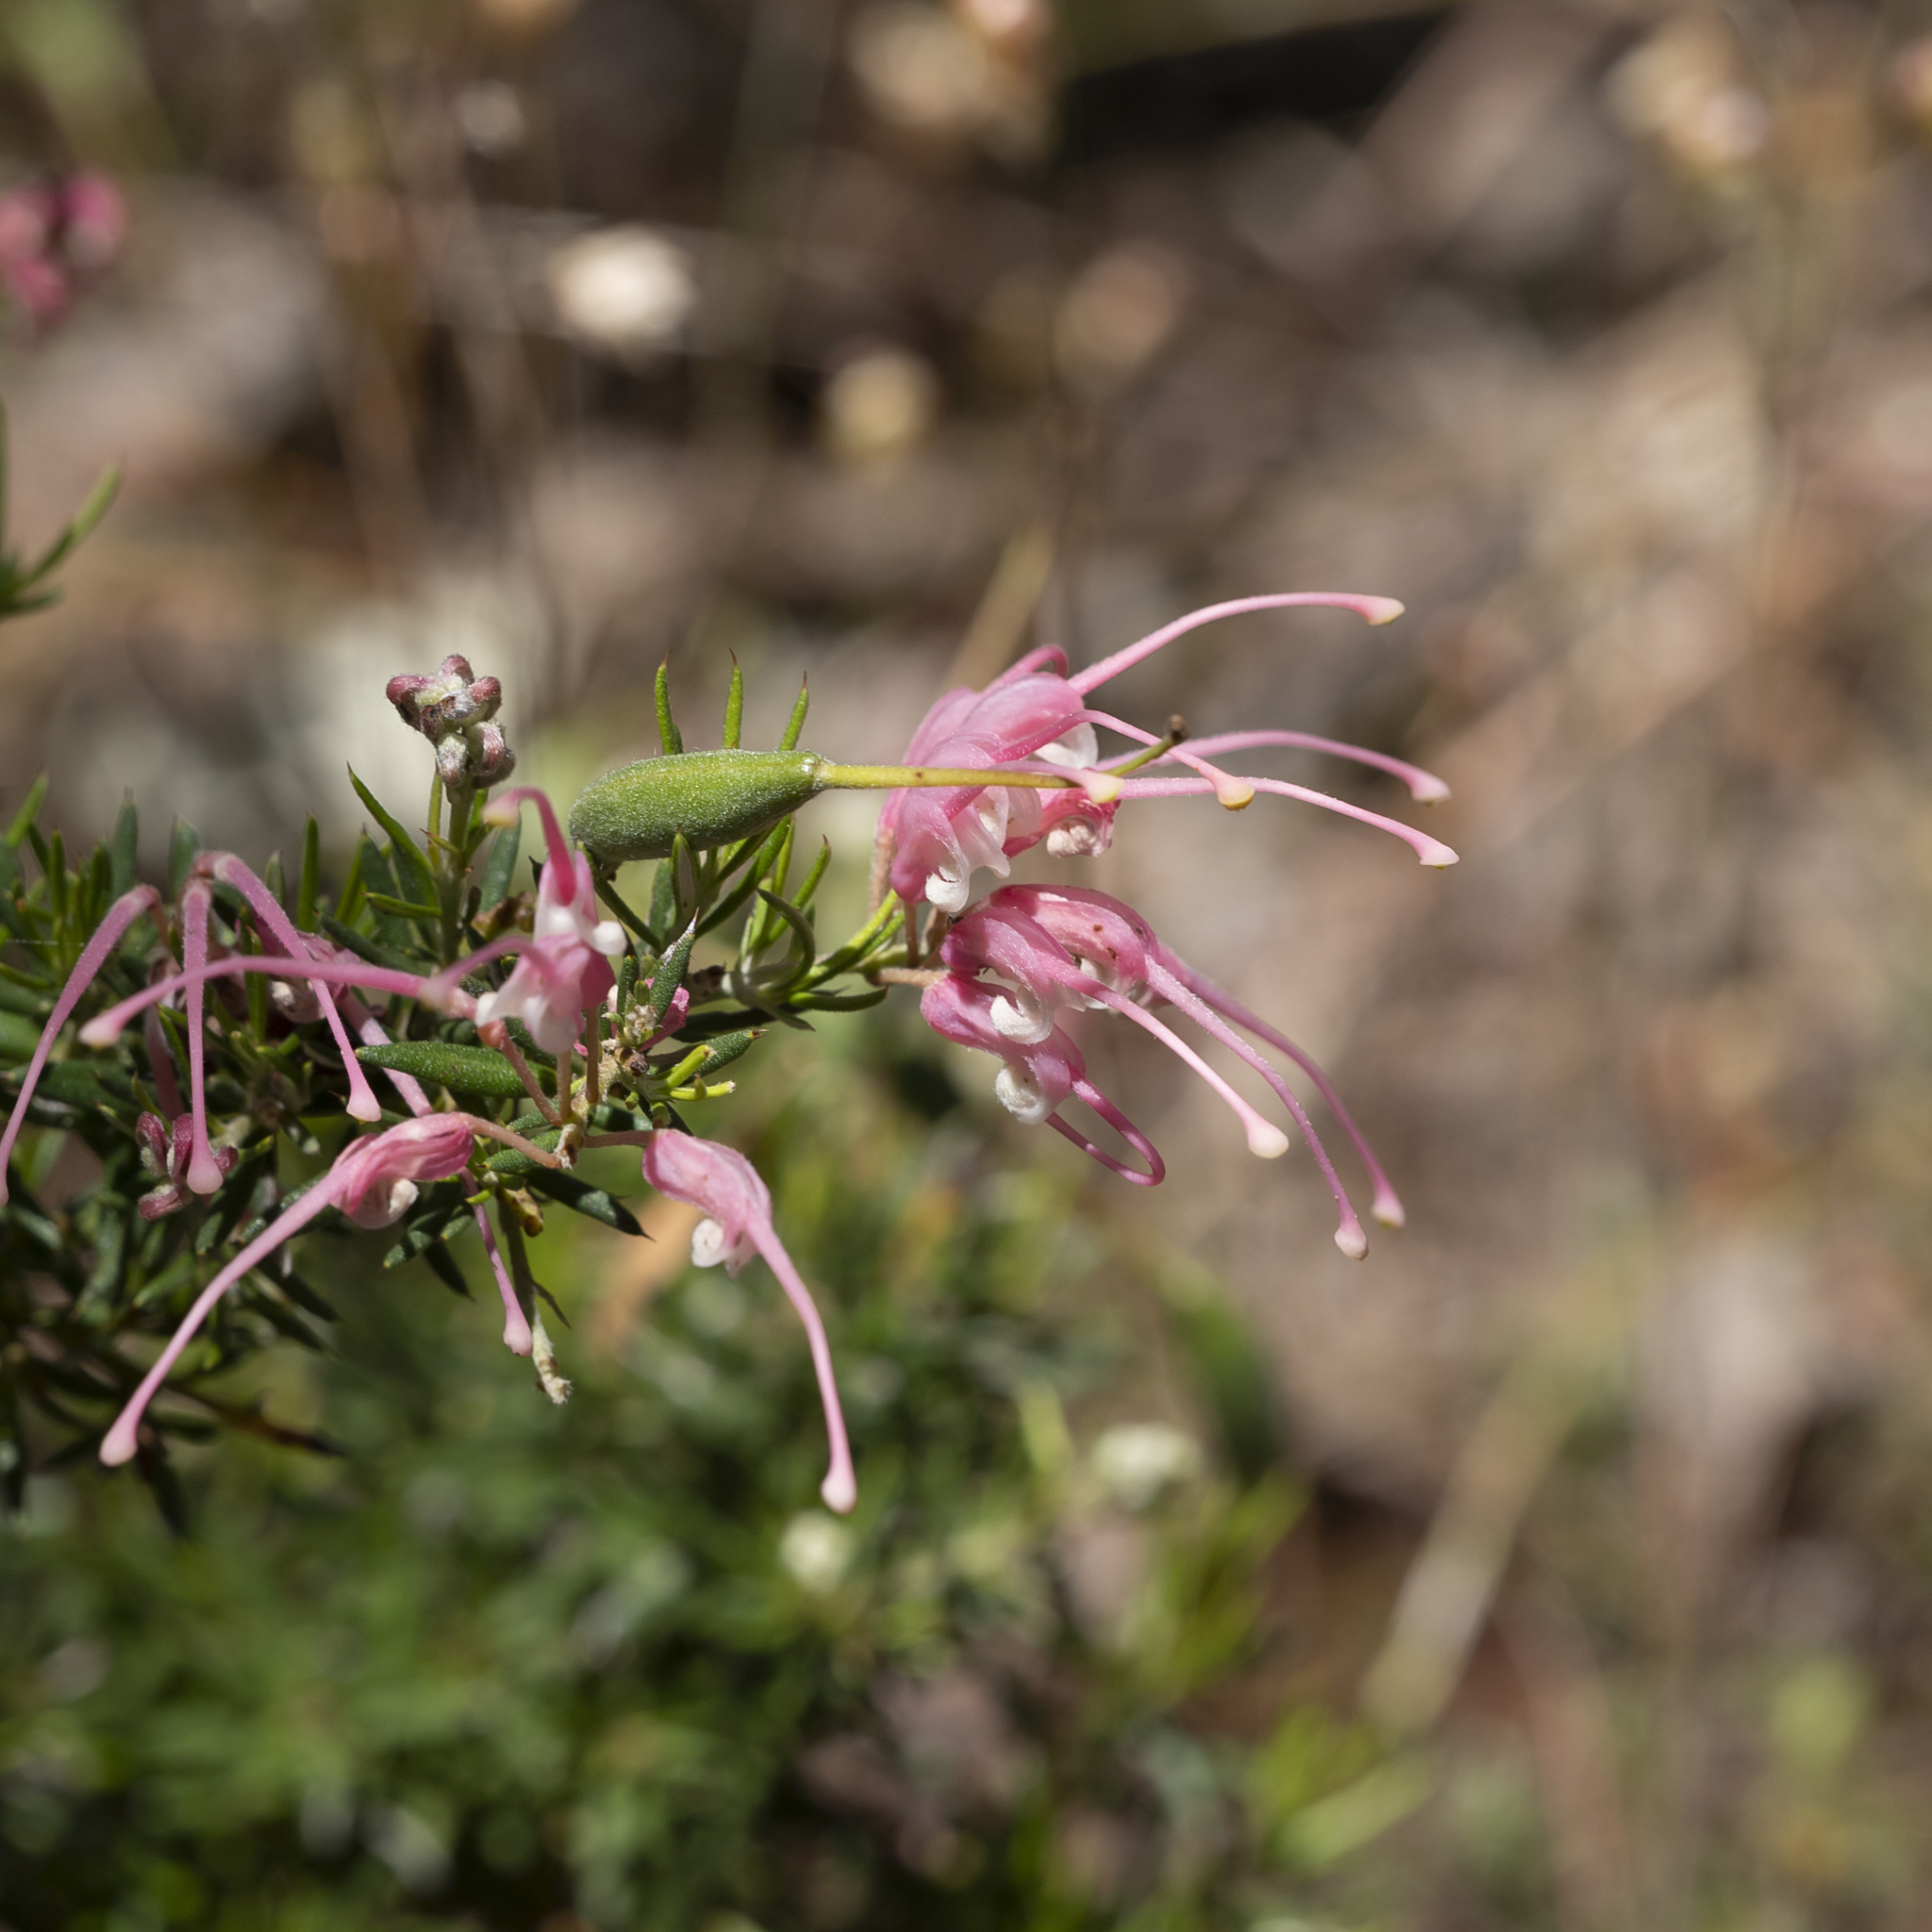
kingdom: Plantae
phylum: Tracheophyta
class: Magnoliopsida
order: Proteales
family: Proteaceae
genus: Grevillea
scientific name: Grevillea lavandulacea
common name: Lavender grevillea
